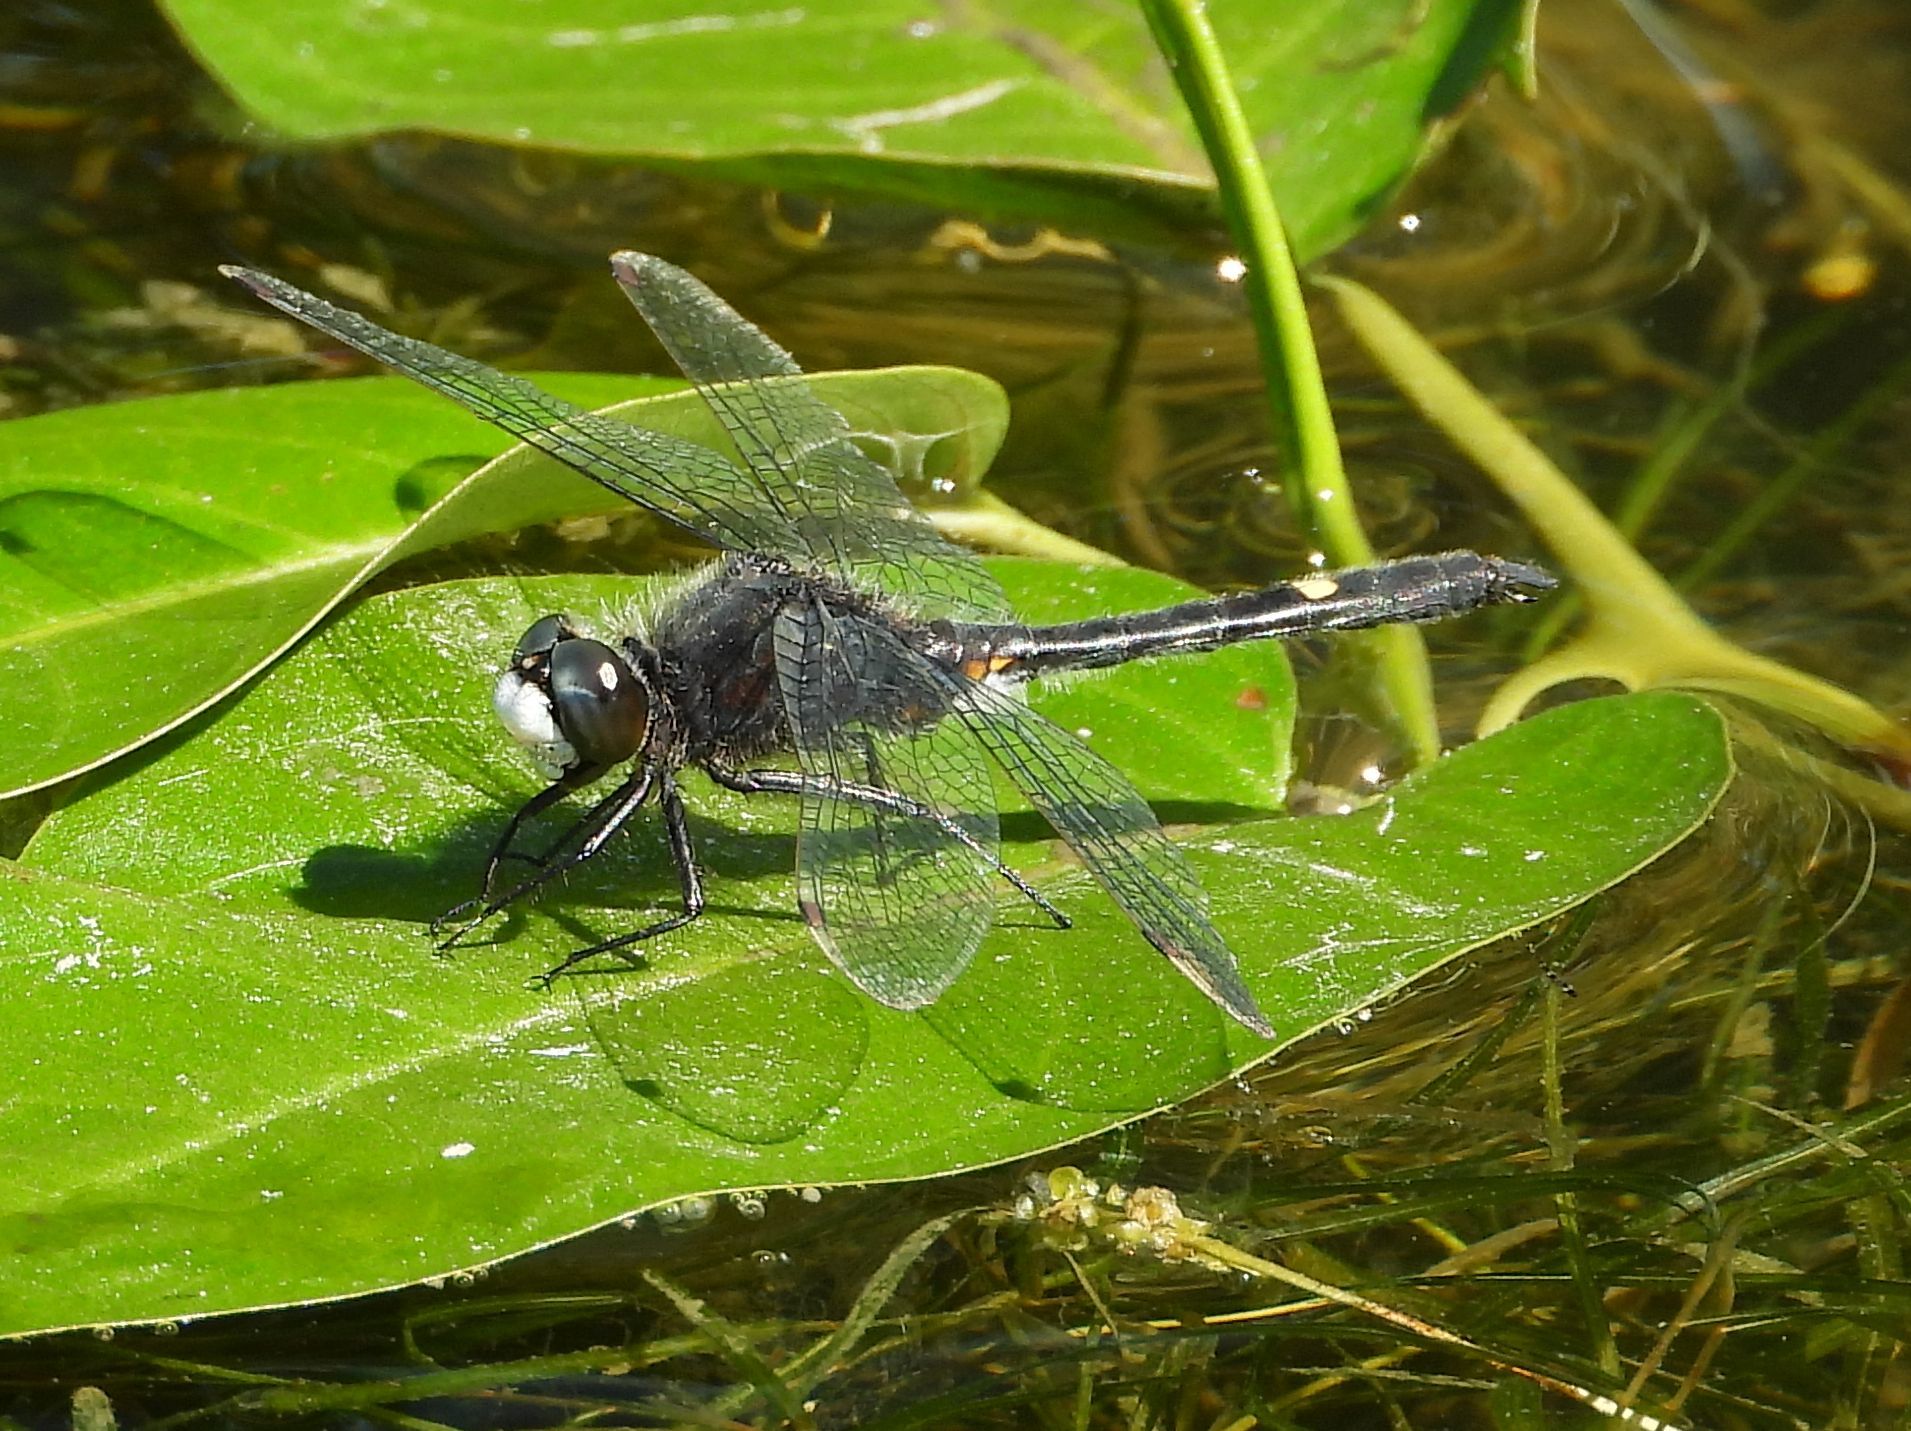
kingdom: Animalia
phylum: Arthropoda
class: Insecta
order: Odonata
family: Libellulidae
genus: Leucorrhinia
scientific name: Leucorrhinia intacta
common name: Dot-tailed whiteface
